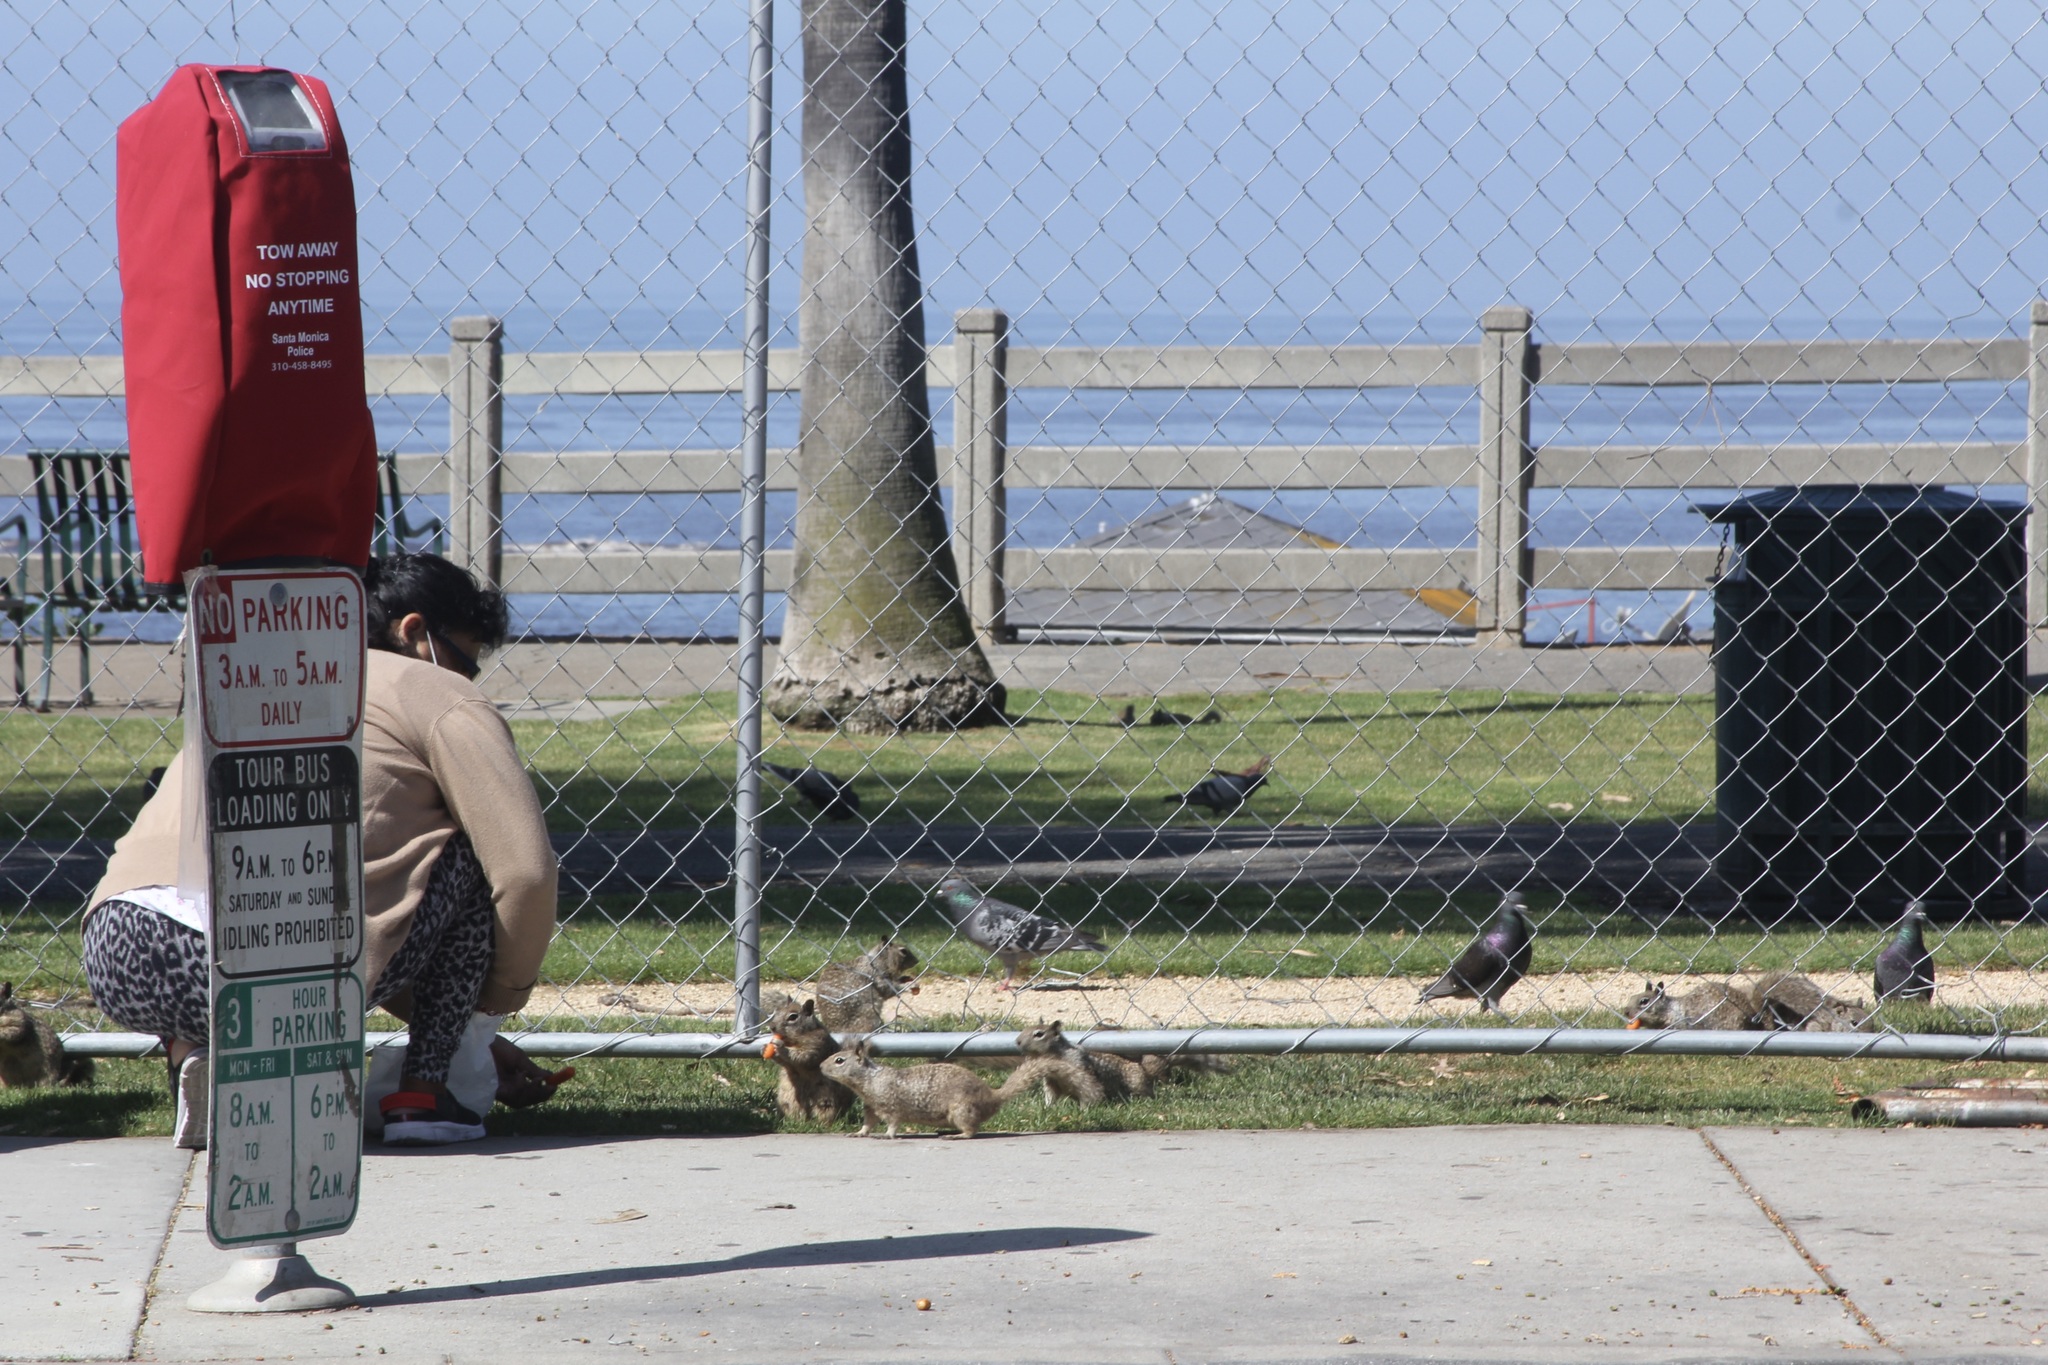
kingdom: Animalia
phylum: Chordata
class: Aves
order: Columbiformes
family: Columbidae
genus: Columba
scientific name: Columba livia
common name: Rock pigeon
